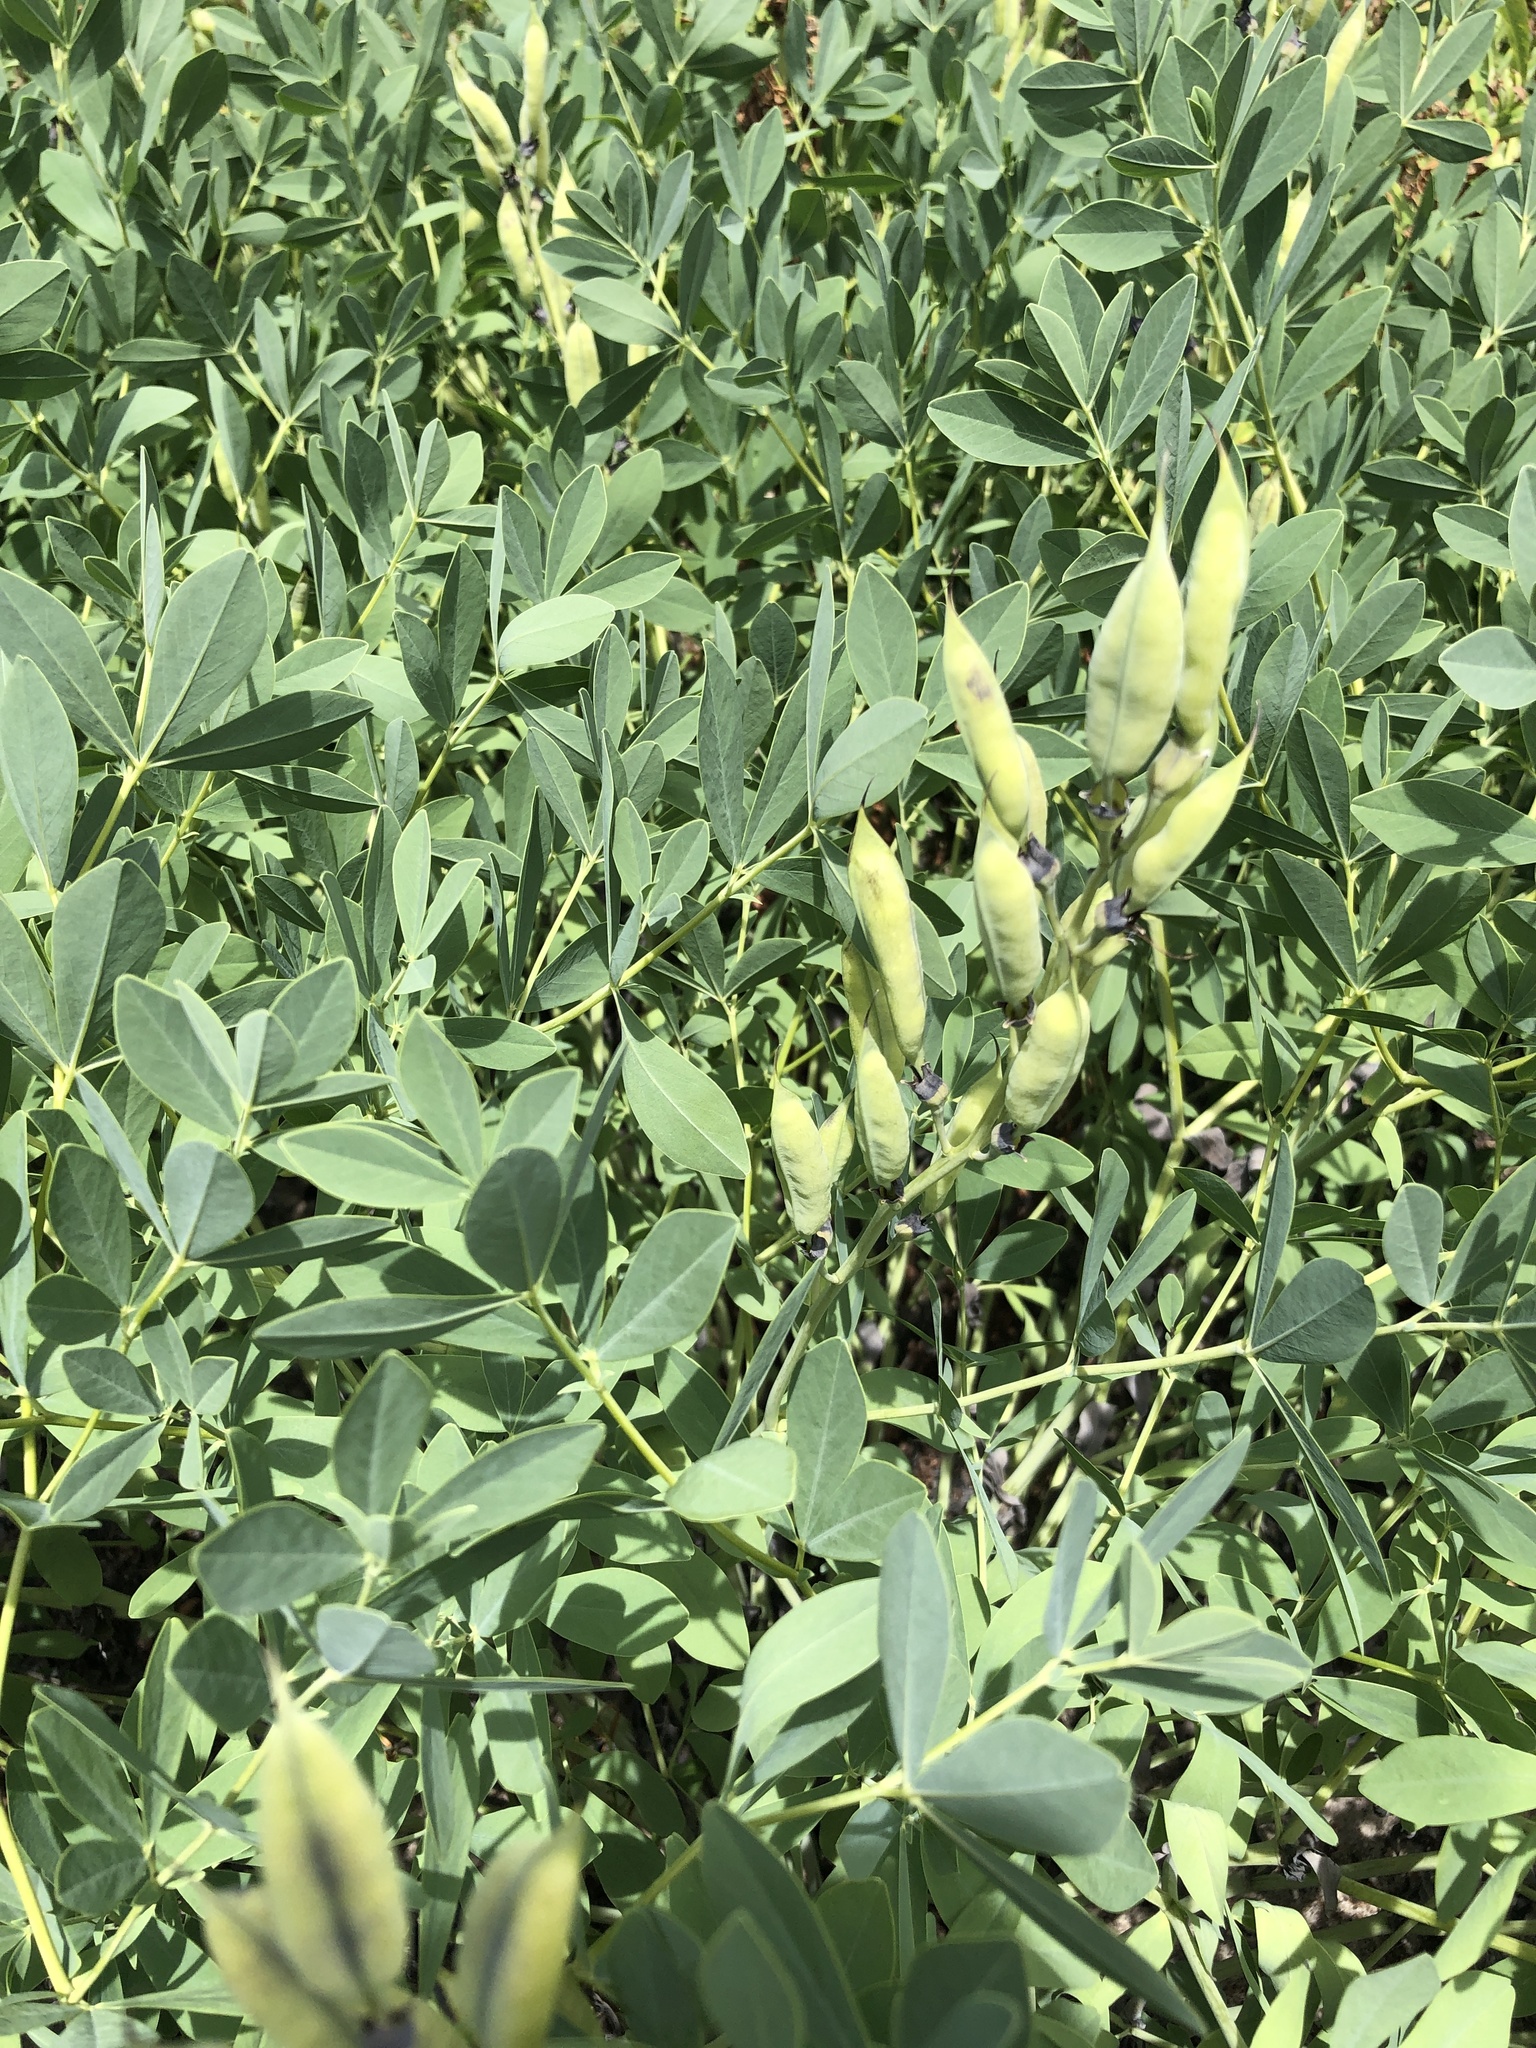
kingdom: Plantae
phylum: Tracheophyta
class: Magnoliopsida
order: Fabales
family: Fabaceae
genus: Baptisia
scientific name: Baptisia australis
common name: Blue false indigo
